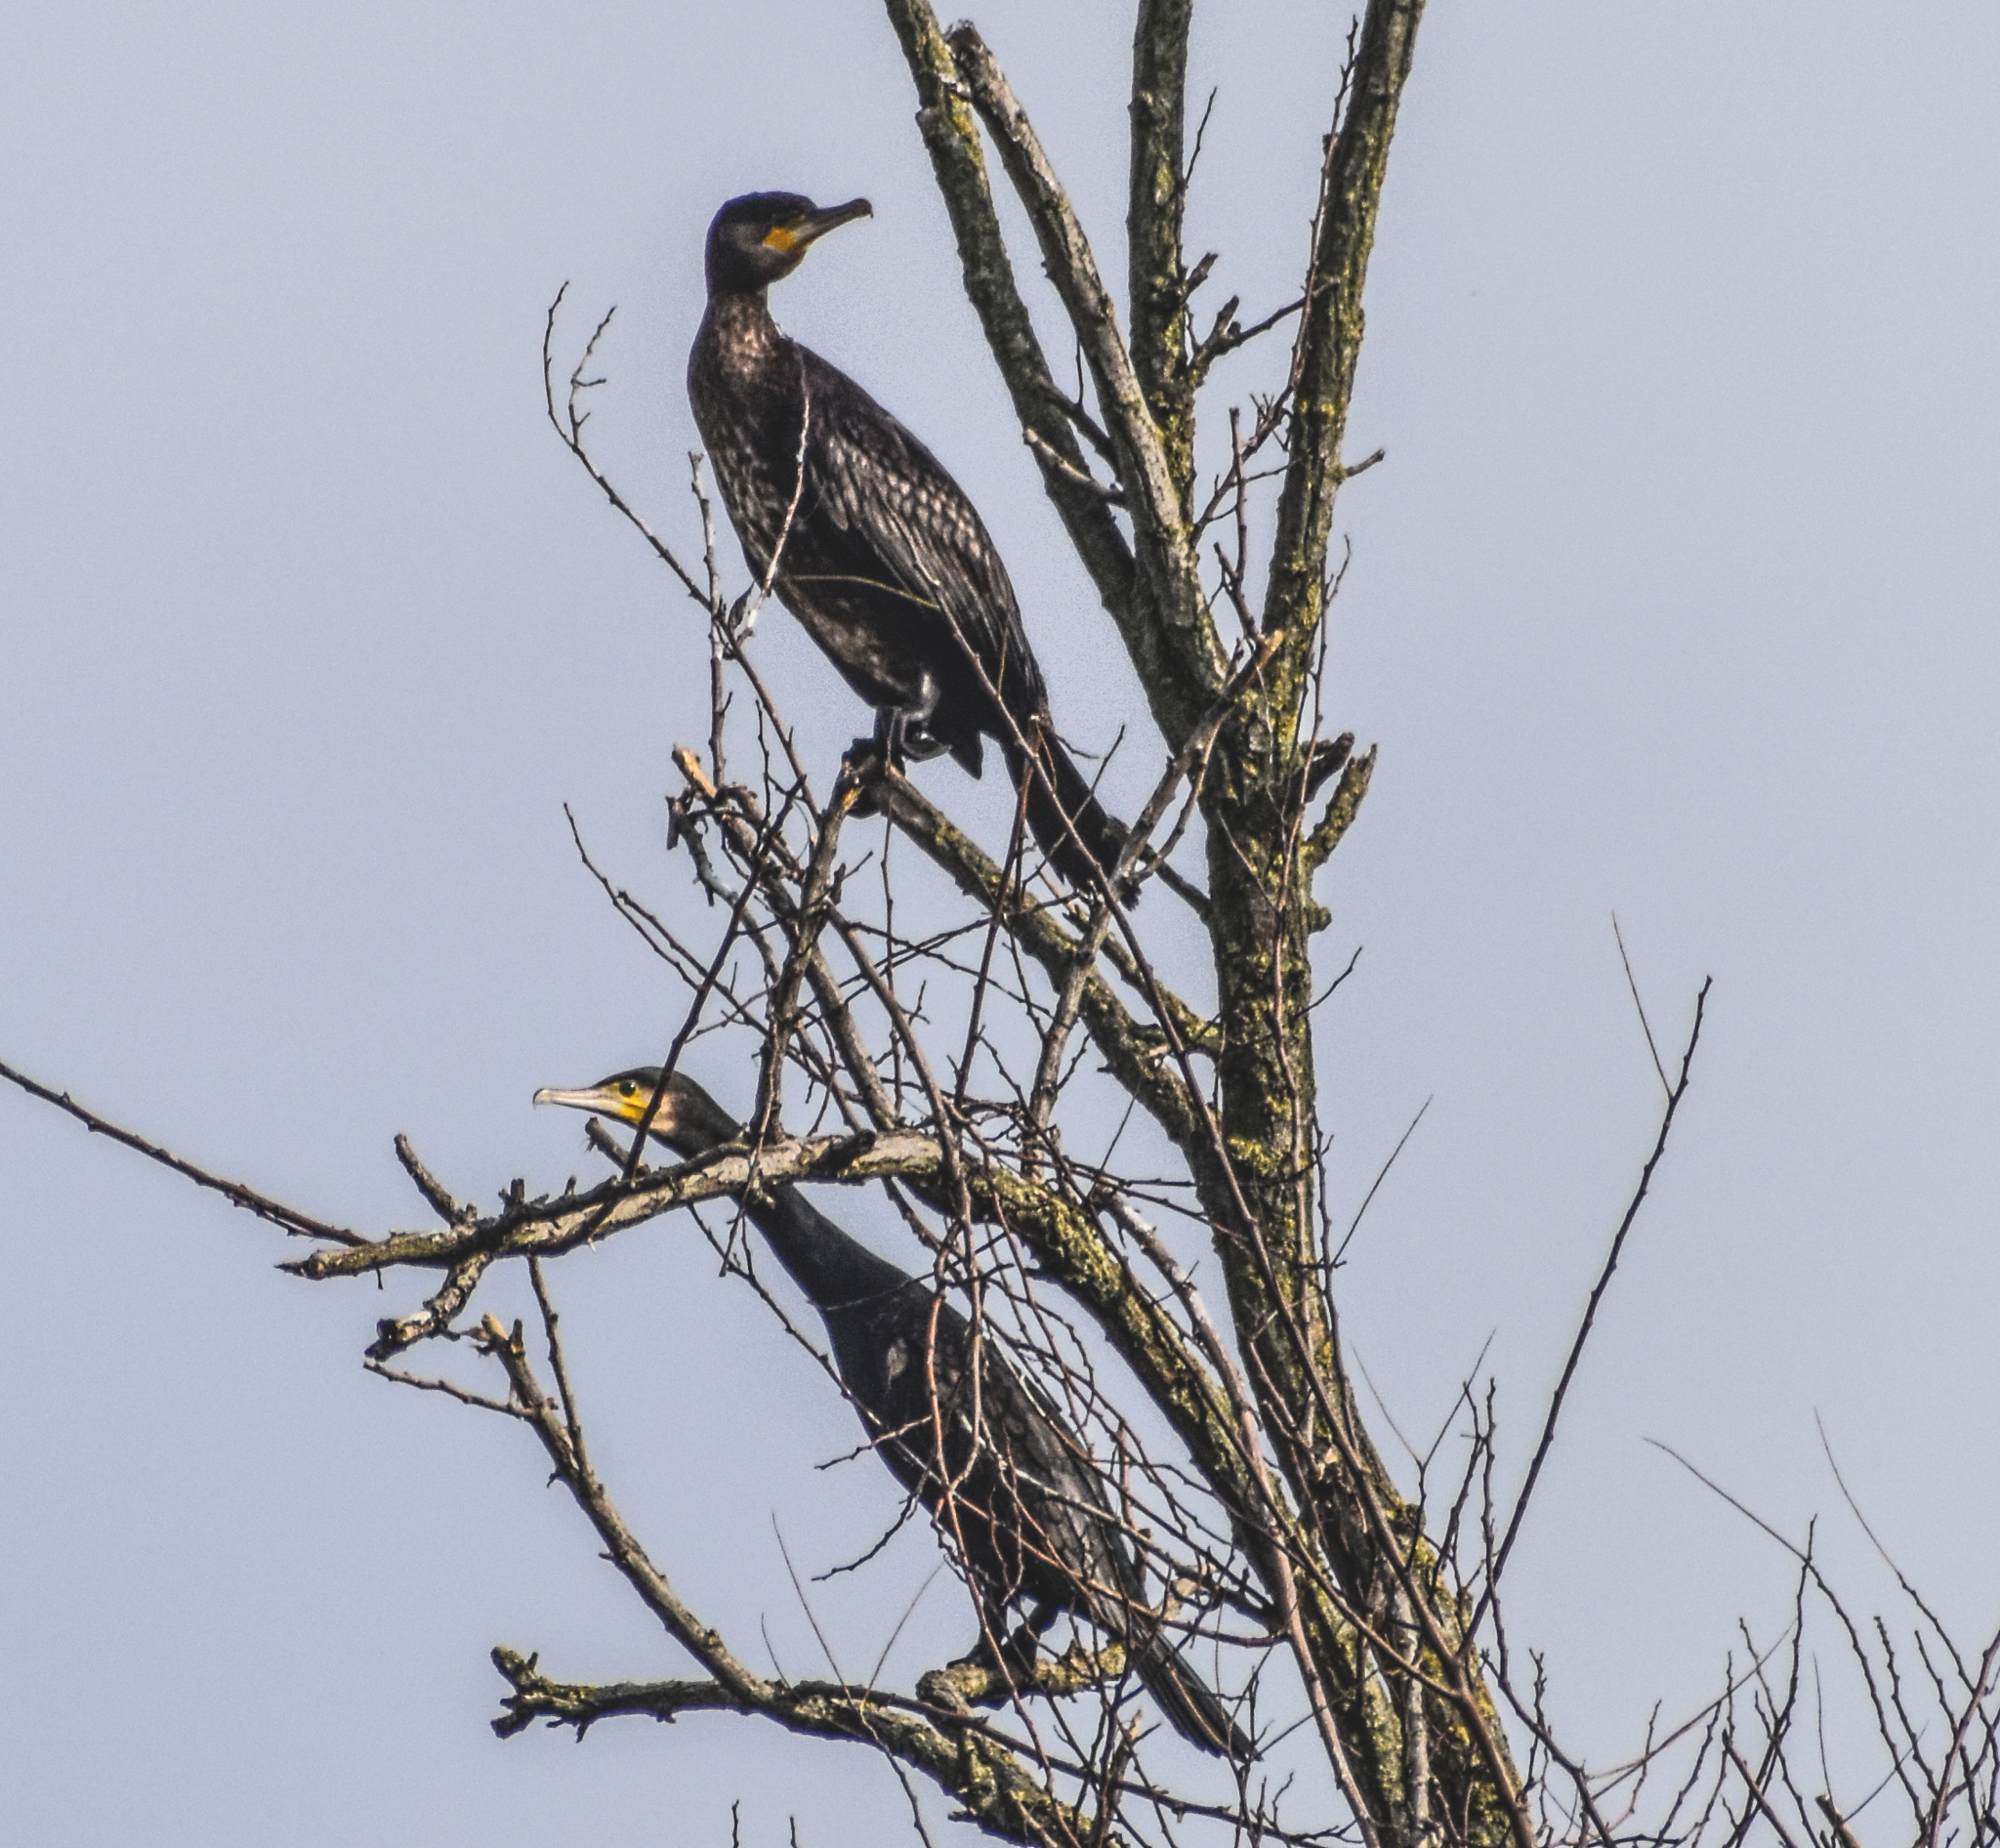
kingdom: Animalia
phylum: Chordata
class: Aves
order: Suliformes
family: Phalacrocoracidae
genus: Phalacrocorax
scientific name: Phalacrocorax carbo
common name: Great cormorant
